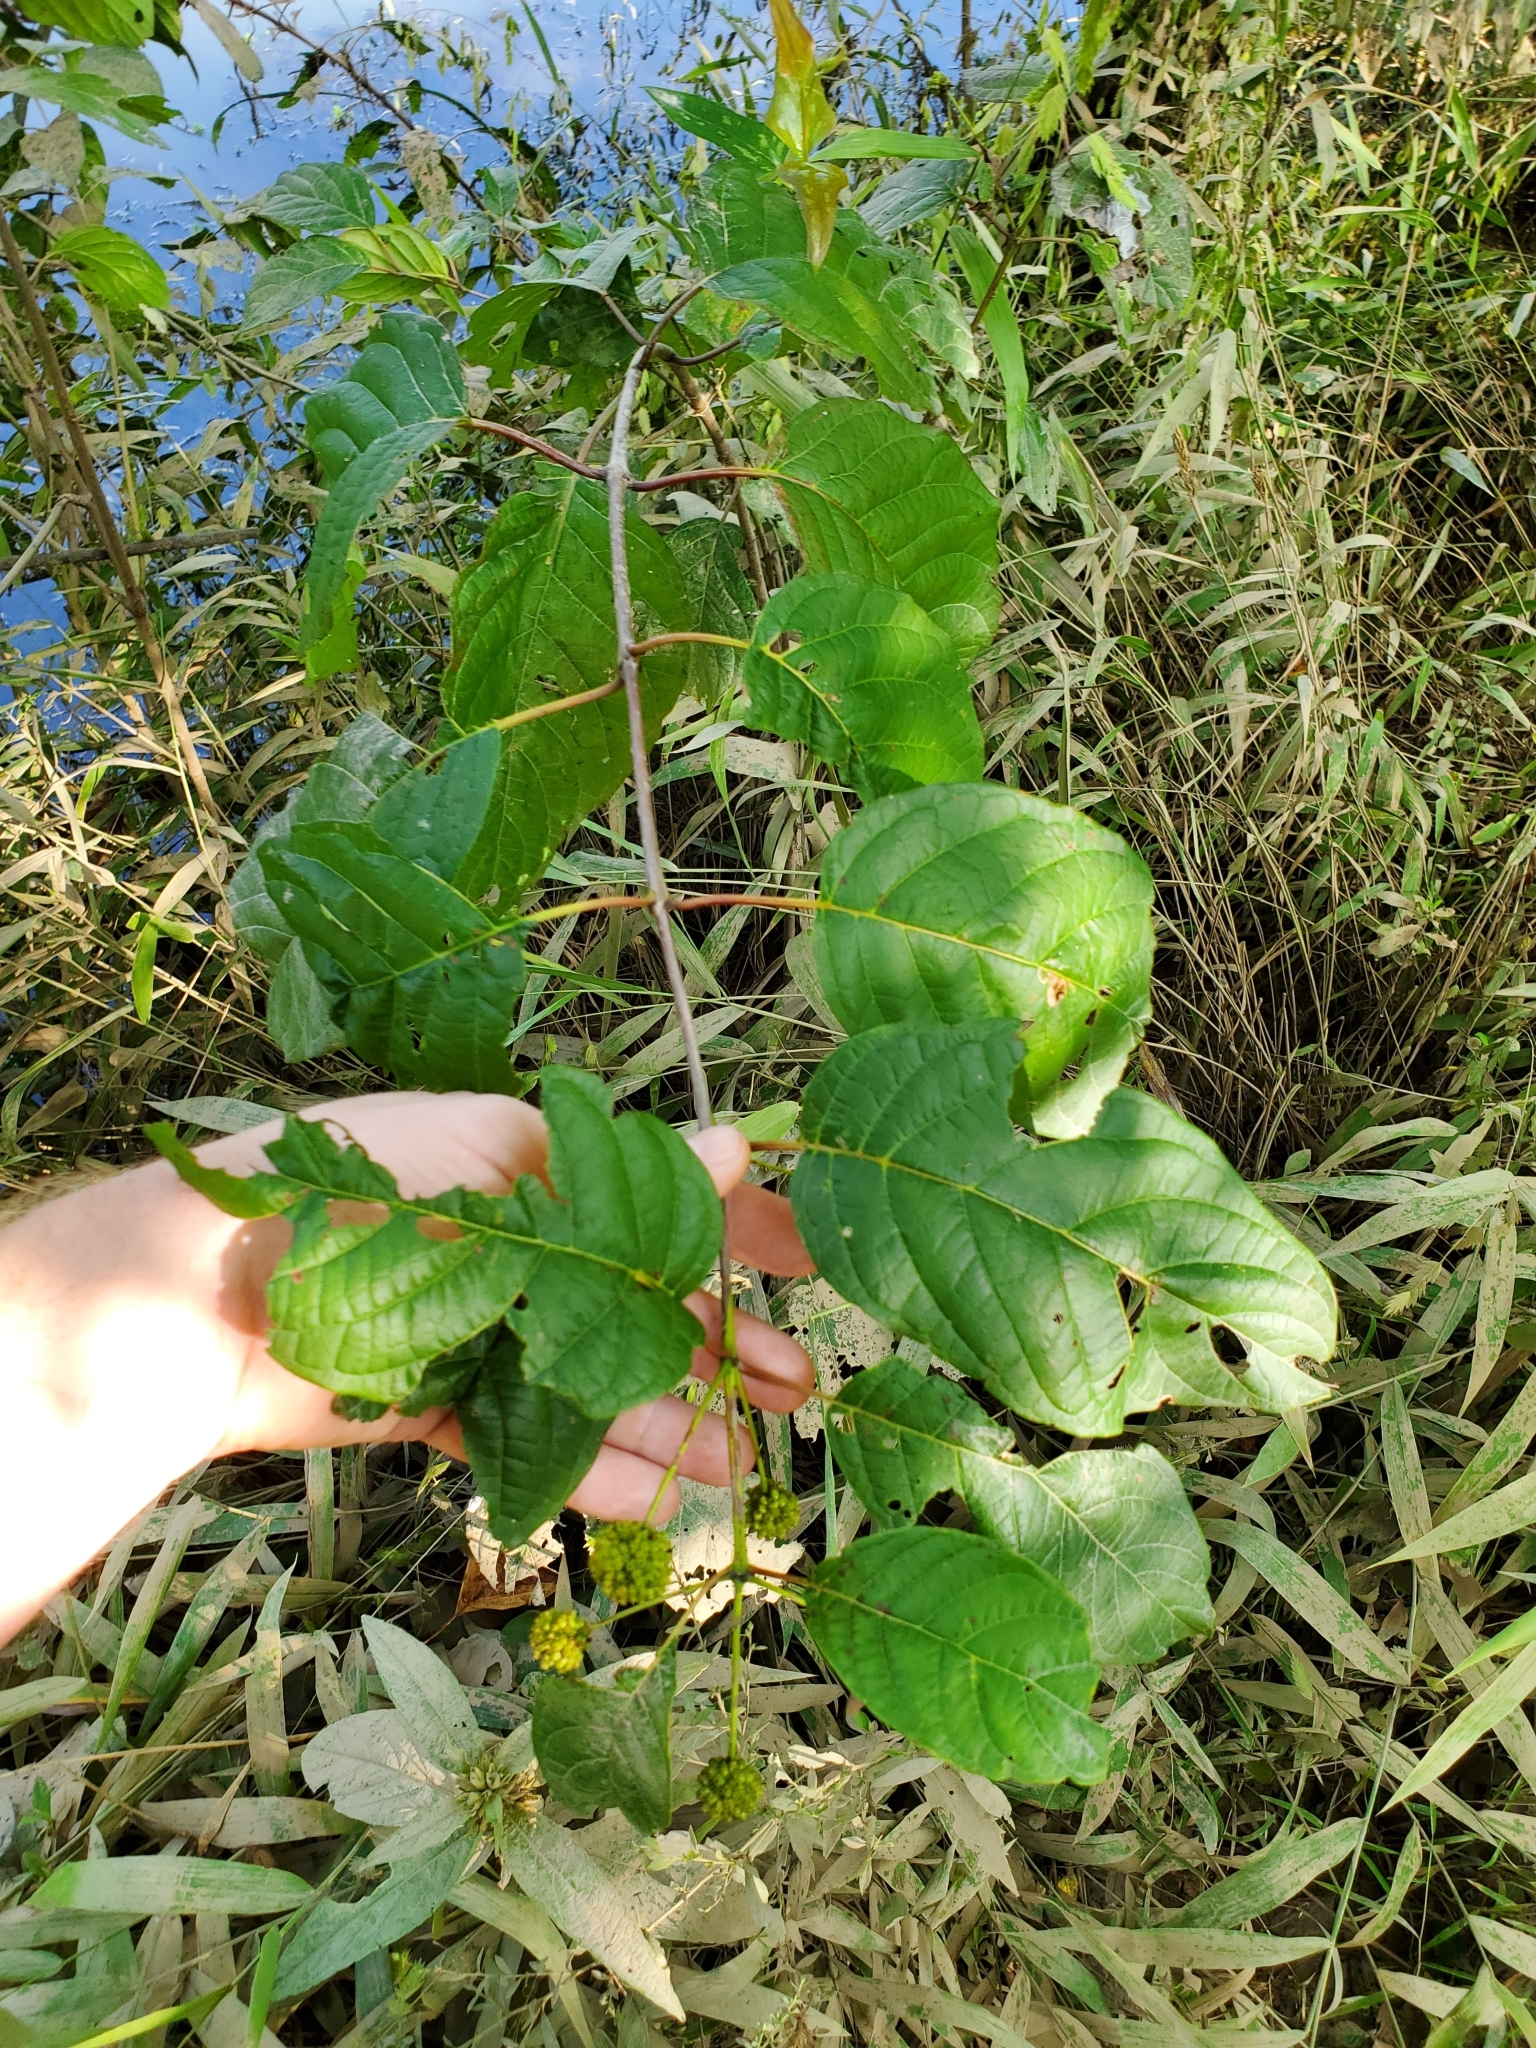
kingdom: Plantae
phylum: Tracheophyta
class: Magnoliopsida
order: Gentianales
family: Rubiaceae
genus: Cephalanthus
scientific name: Cephalanthus occidentalis
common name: Button-willow
